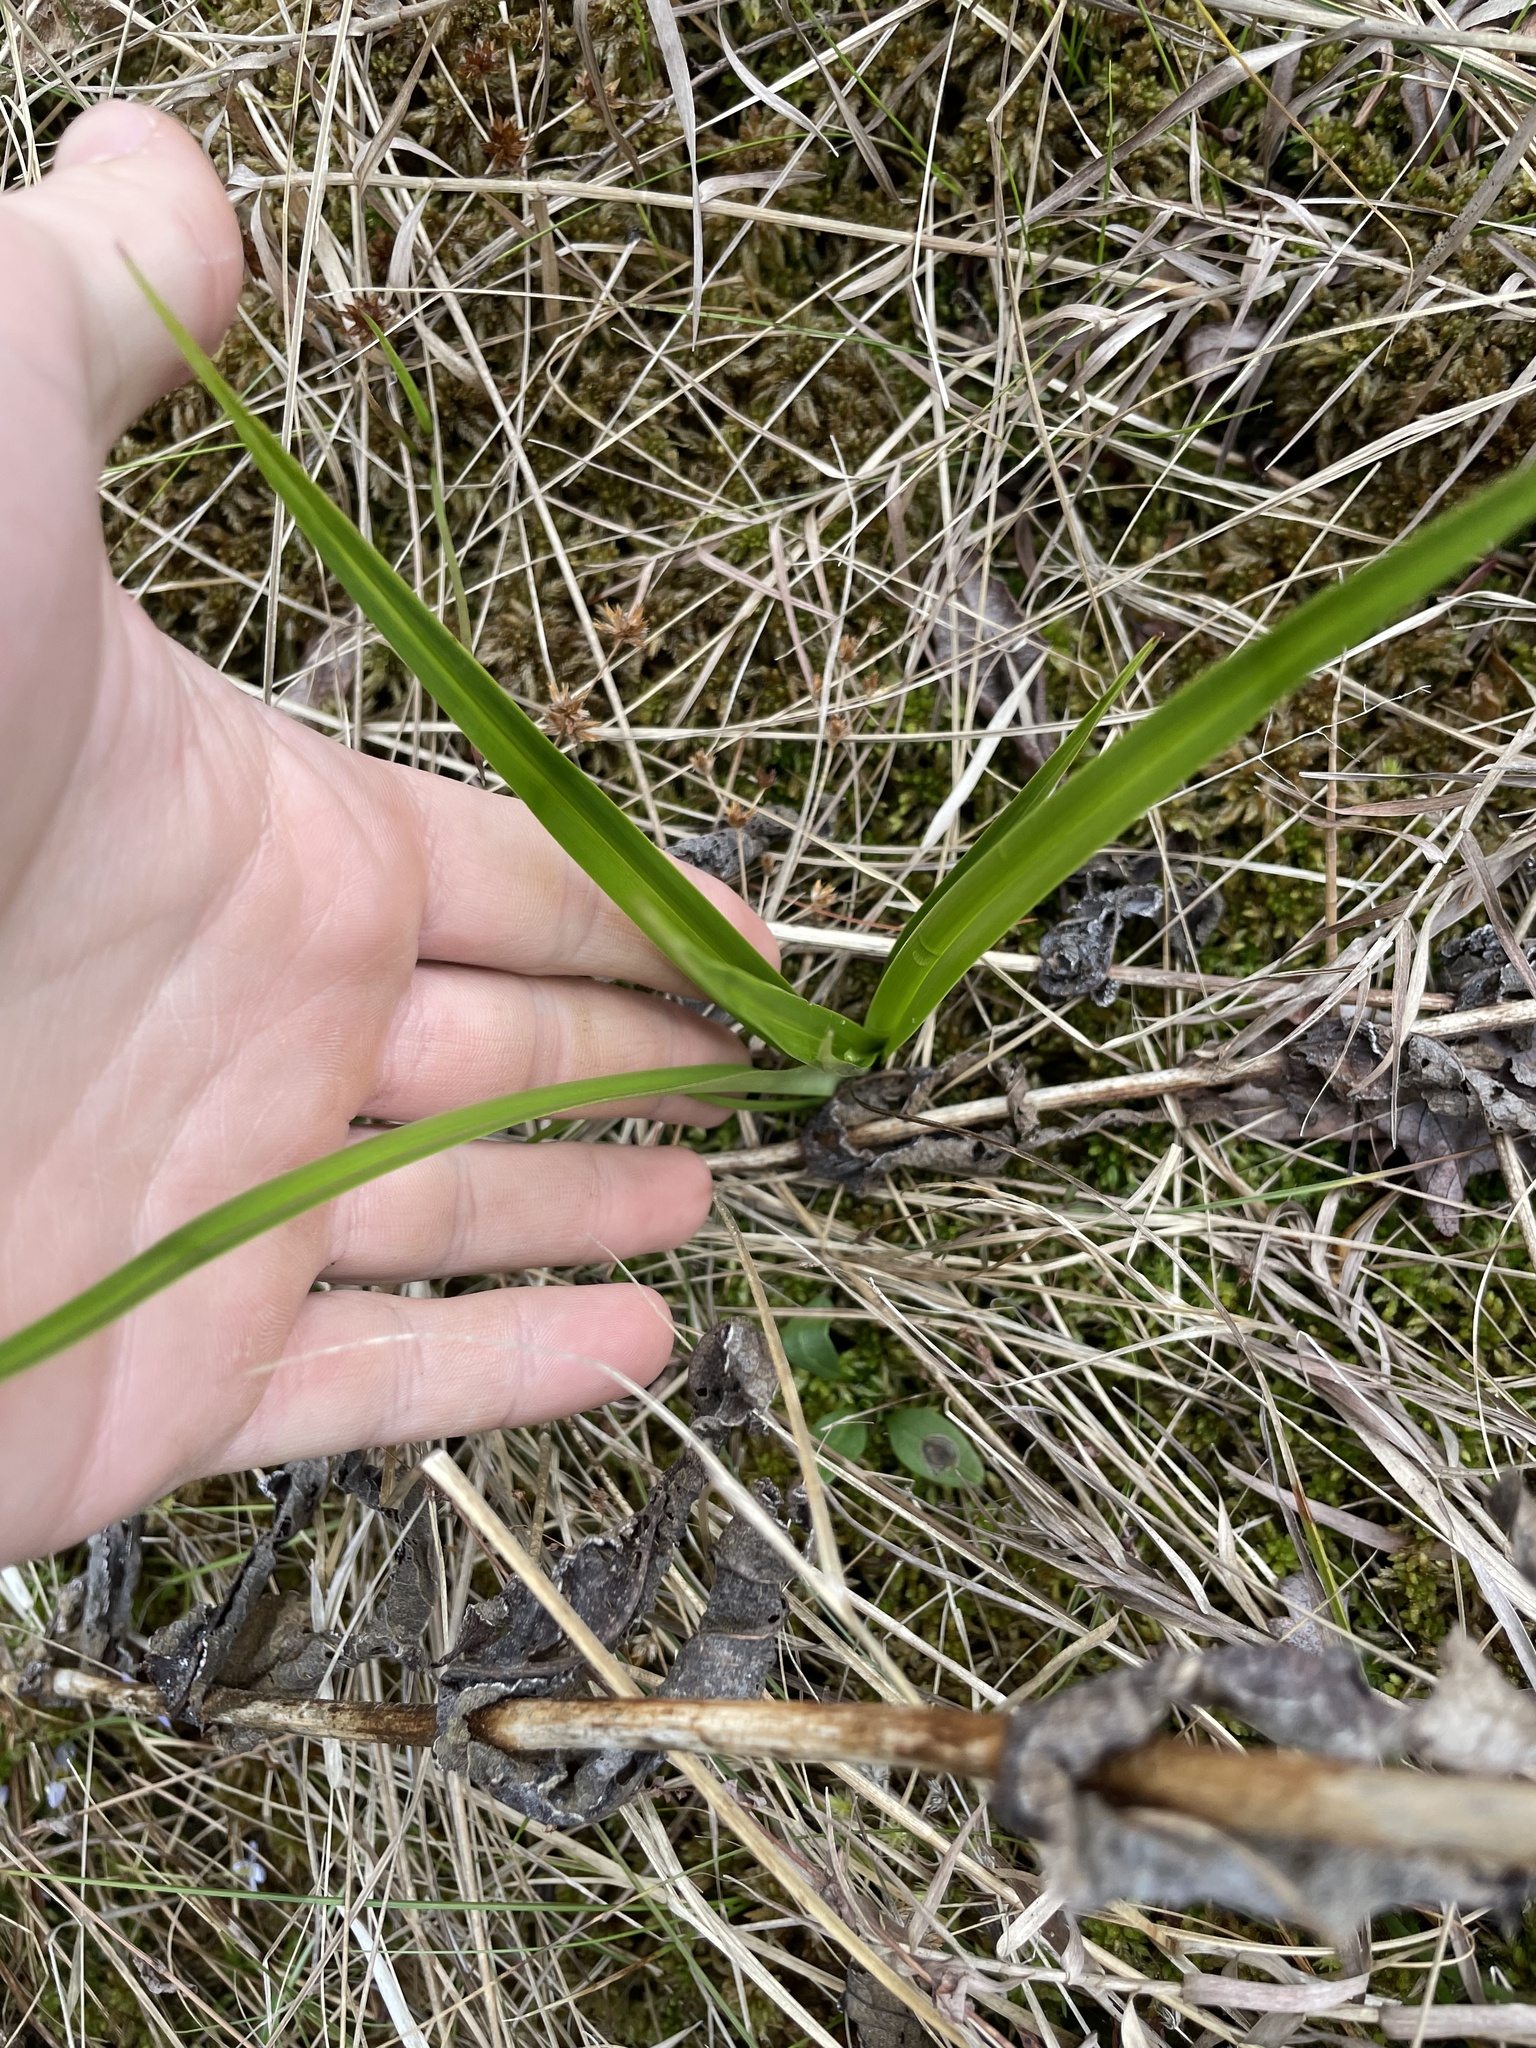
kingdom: Plantae
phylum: Tracheophyta
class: Liliopsida
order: Liliales
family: Melanthiaceae
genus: Stenanthium
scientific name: Stenanthium gramineum
